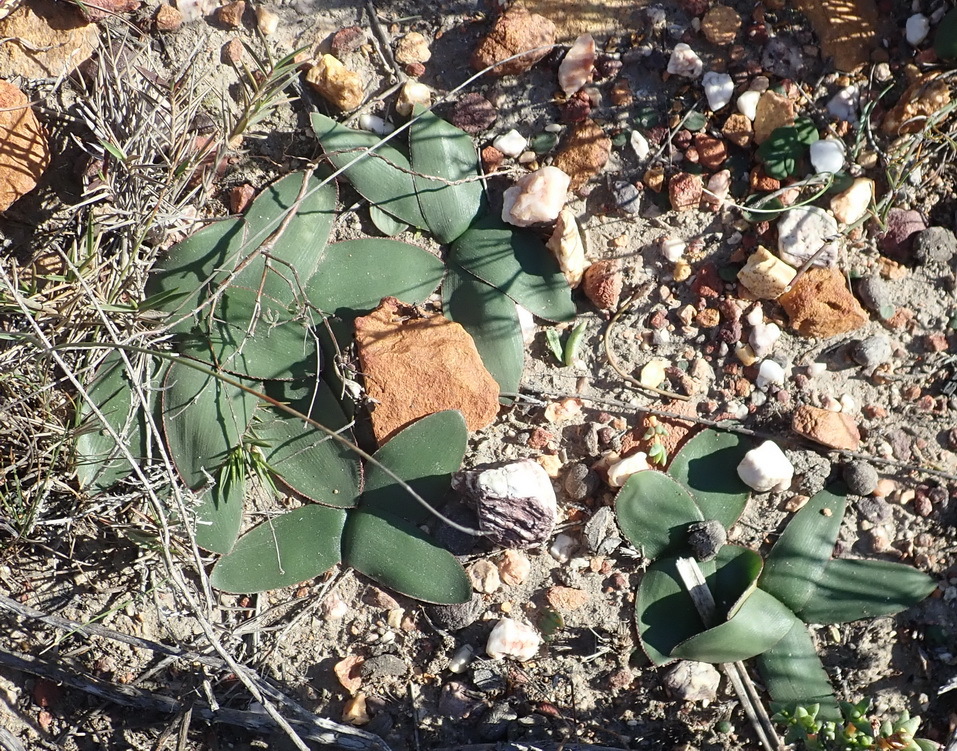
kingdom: Plantae
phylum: Tracheophyta
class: Liliopsida
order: Asparagales
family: Amaryllidaceae
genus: Brunsvigia
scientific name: Brunsvigia nervosa
